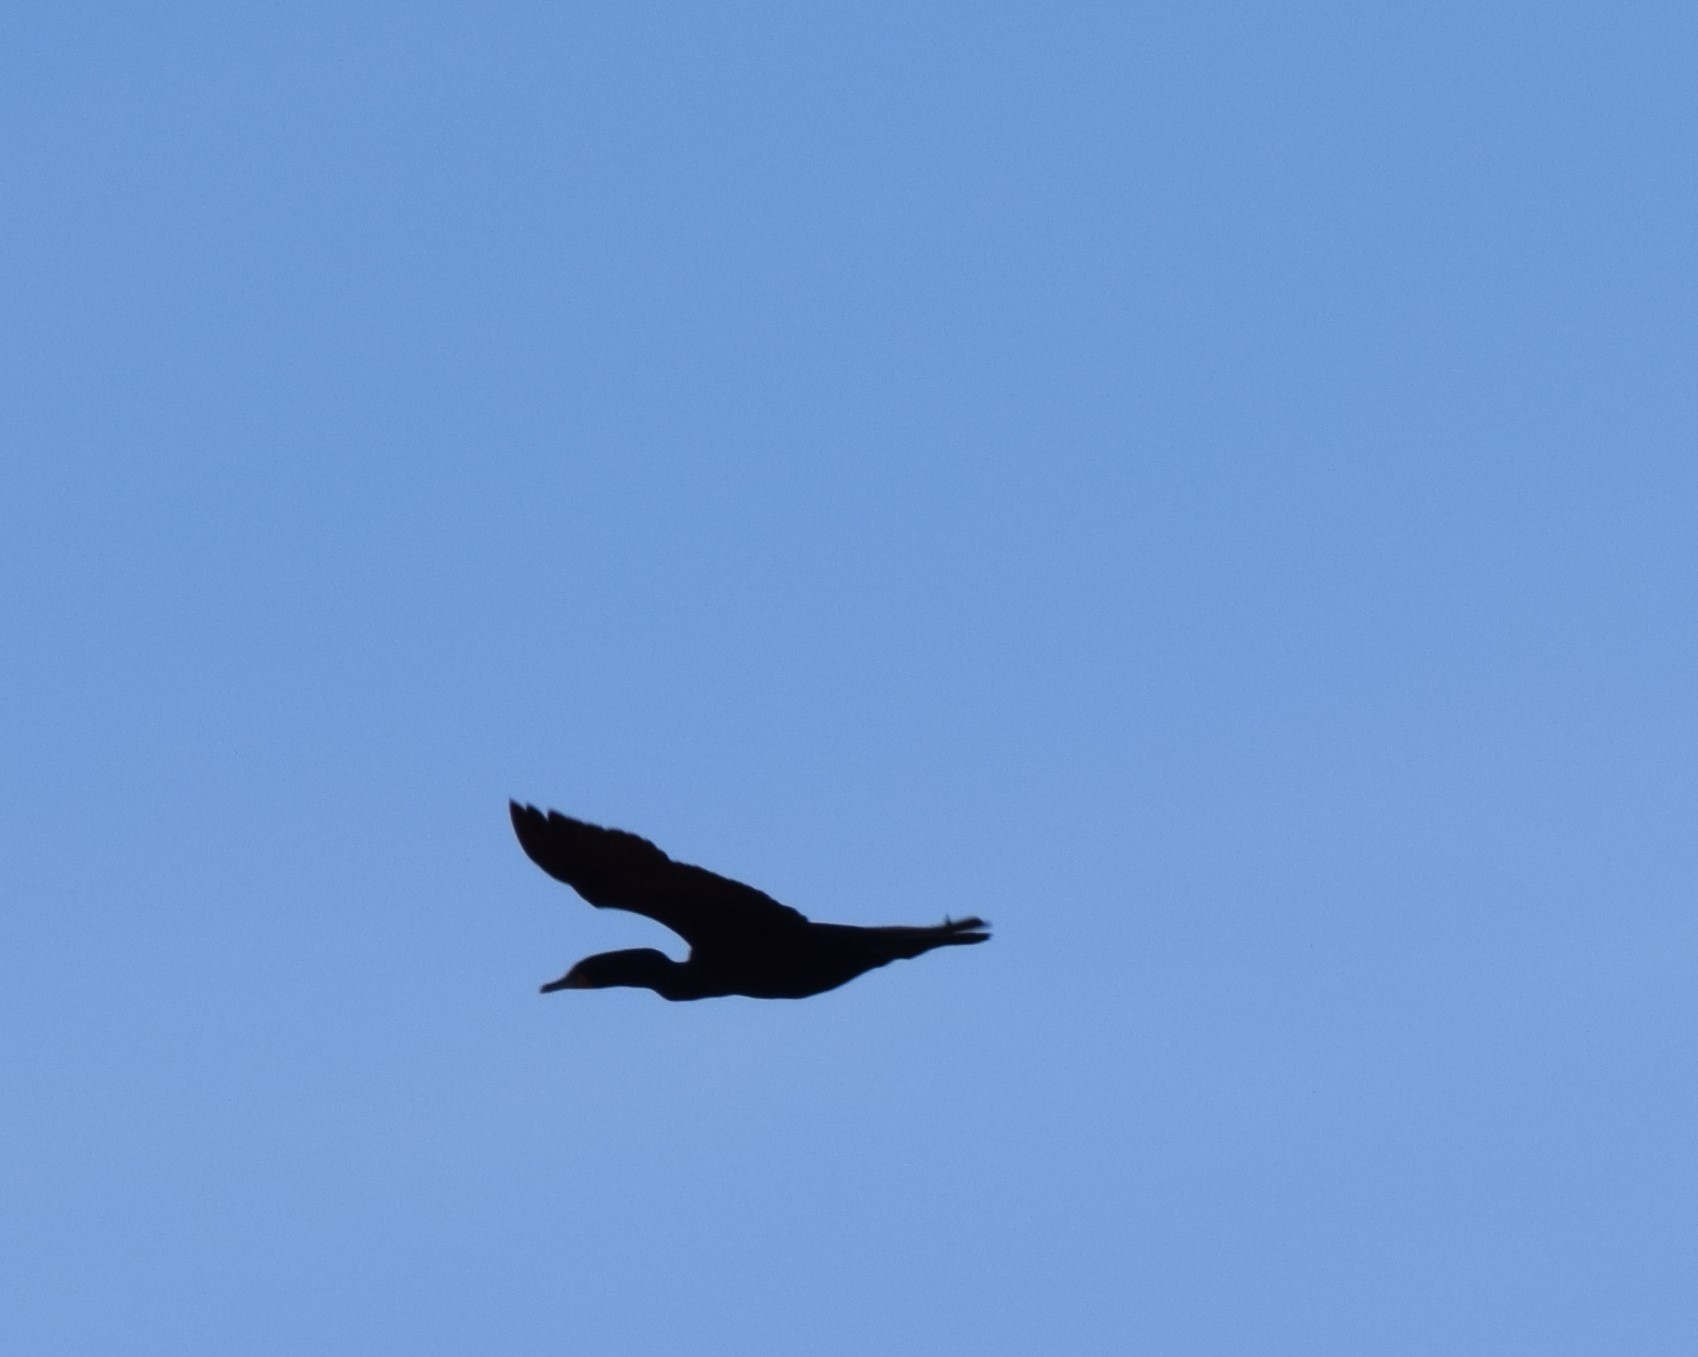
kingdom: Animalia
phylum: Chordata
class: Aves
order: Suliformes
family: Phalacrocoracidae
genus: Phalacrocorax
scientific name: Phalacrocorax auritus
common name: Double-crested cormorant
